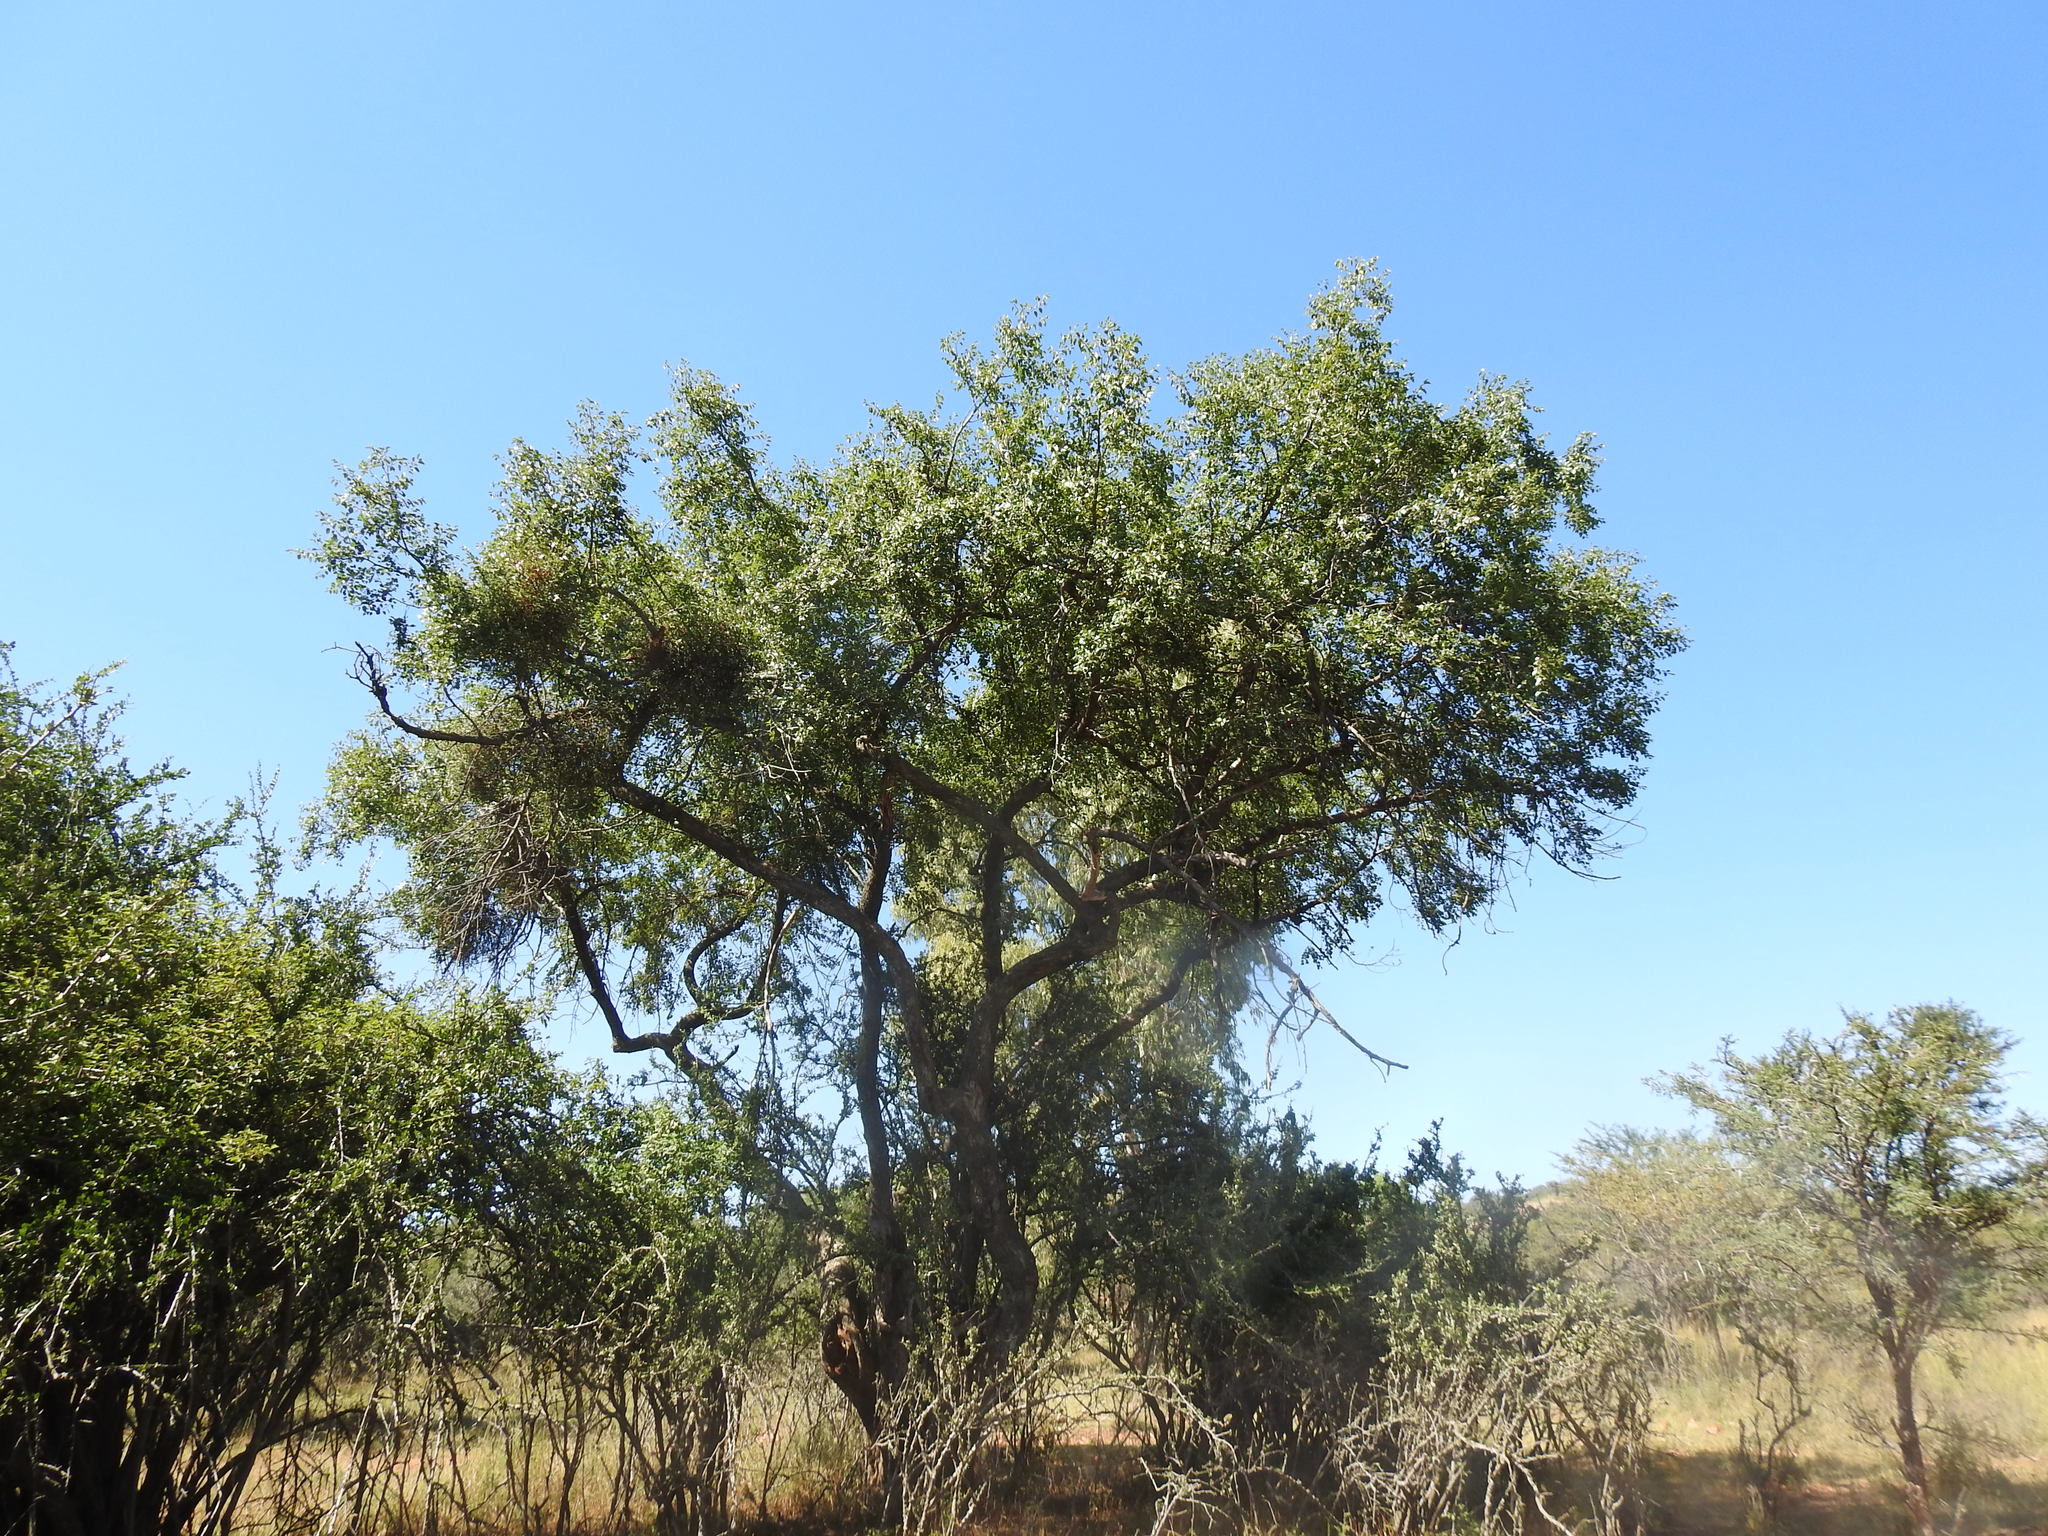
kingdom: Plantae
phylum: Tracheophyta
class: Magnoliopsida
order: Rosales
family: Rhamnaceae
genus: Ziziphus
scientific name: Ziziphus mucronata
